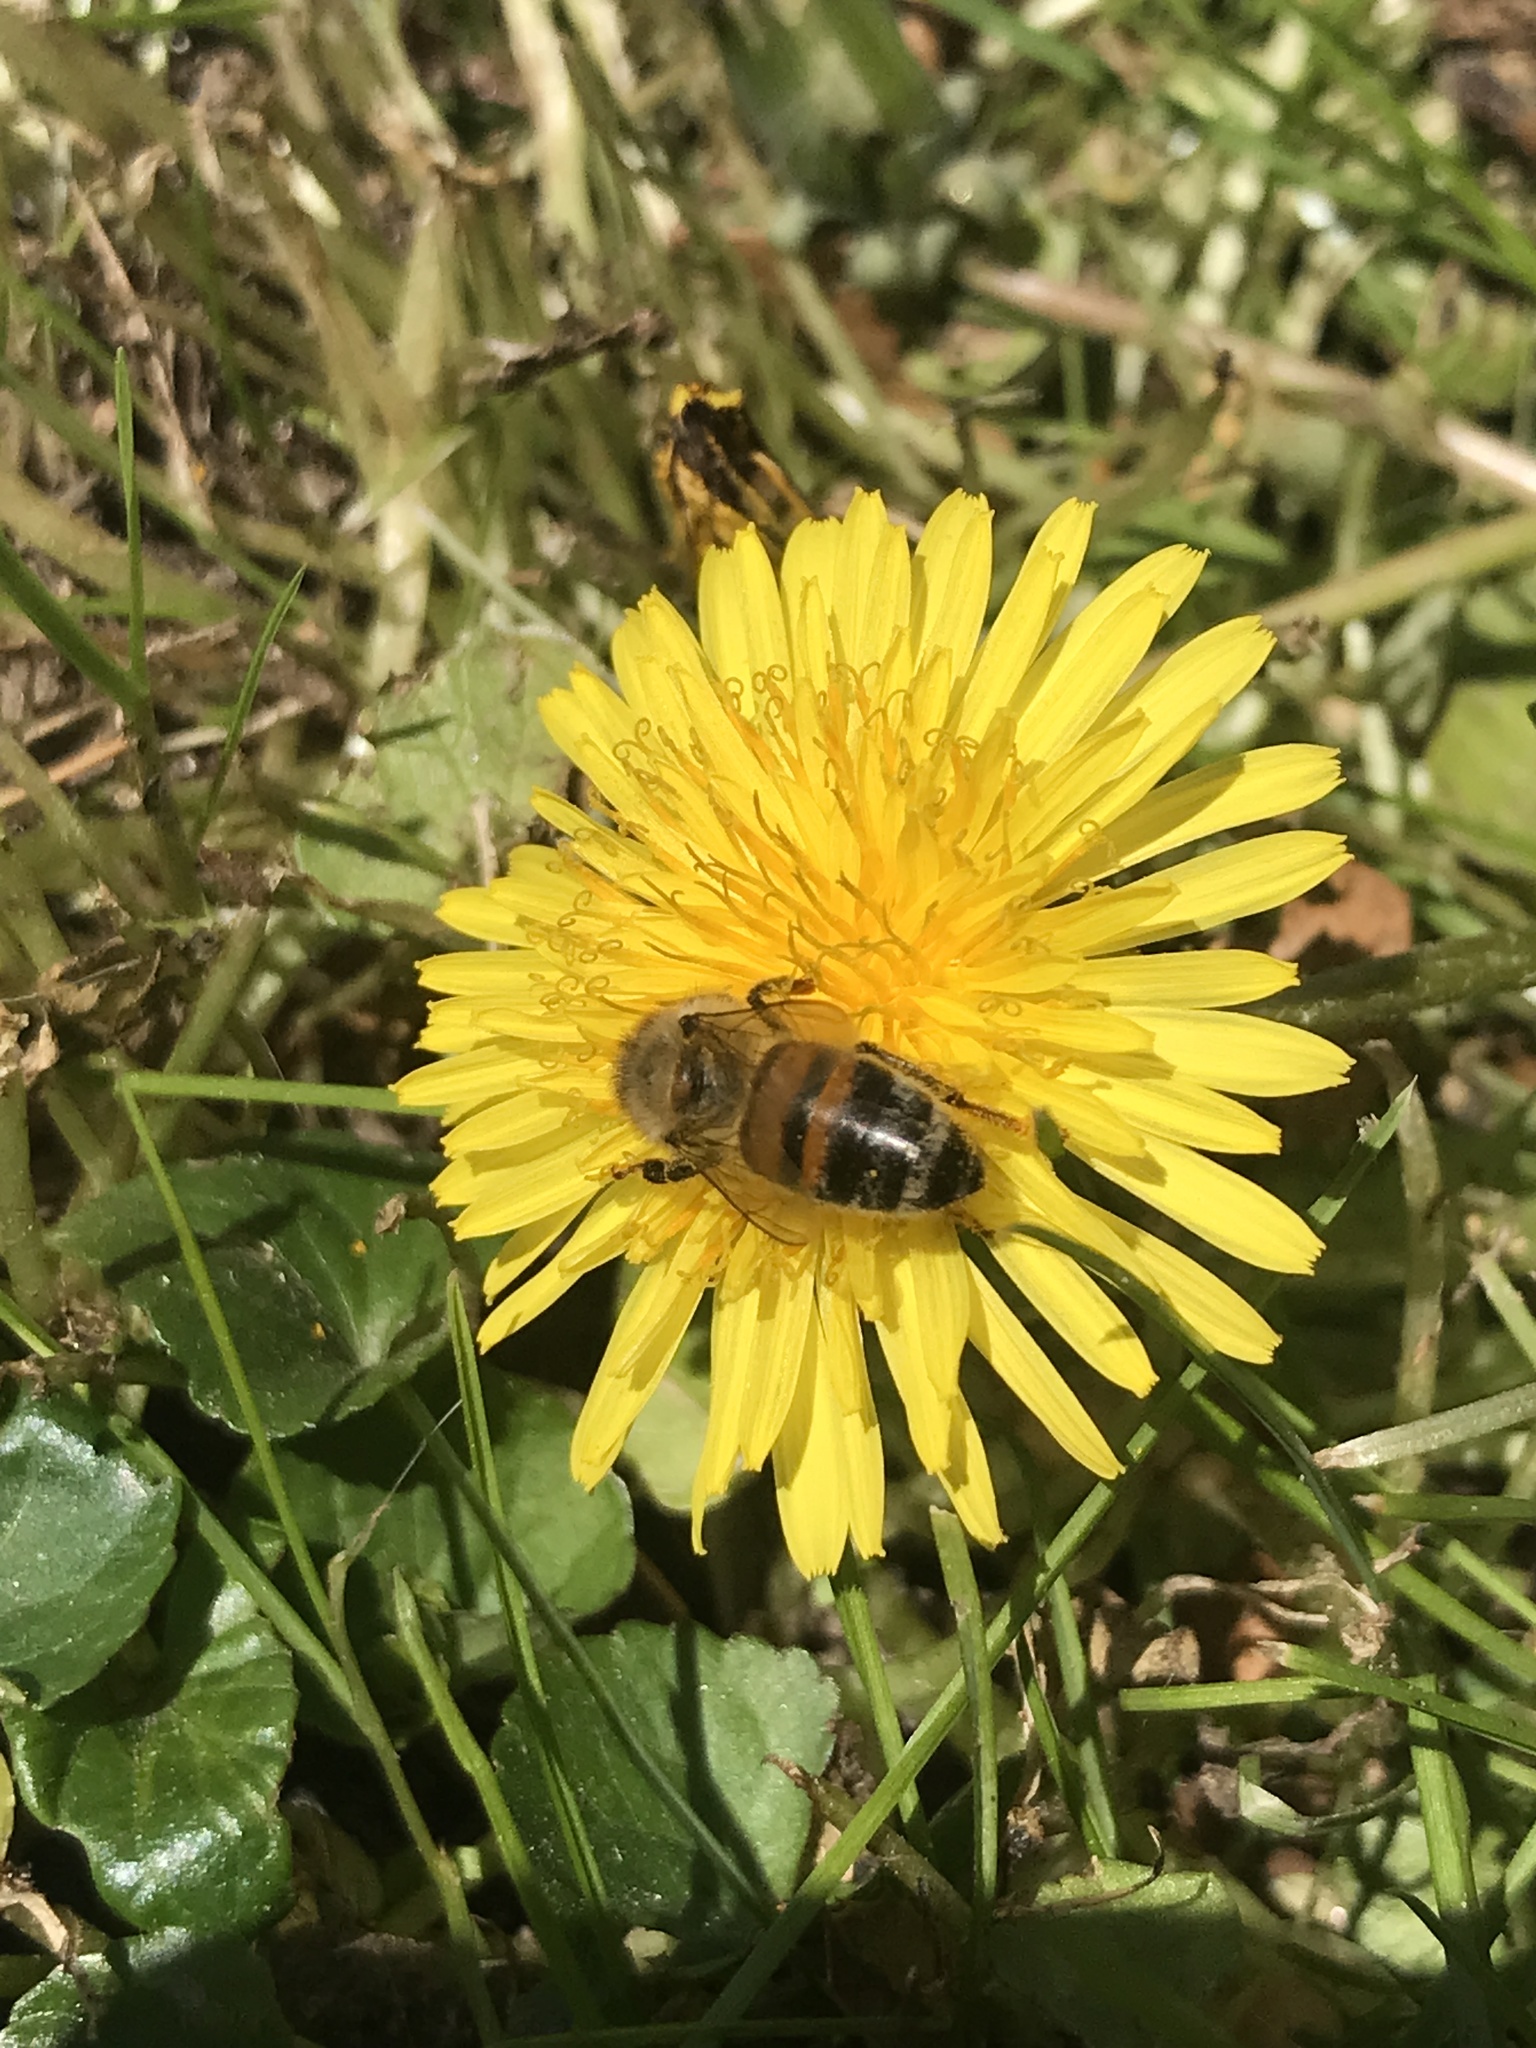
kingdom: Animalia
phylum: Arthropoda
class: Insecta
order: Hymenoptera
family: Apidae
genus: Apis
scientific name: Apis mellifera
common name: Honey bee
